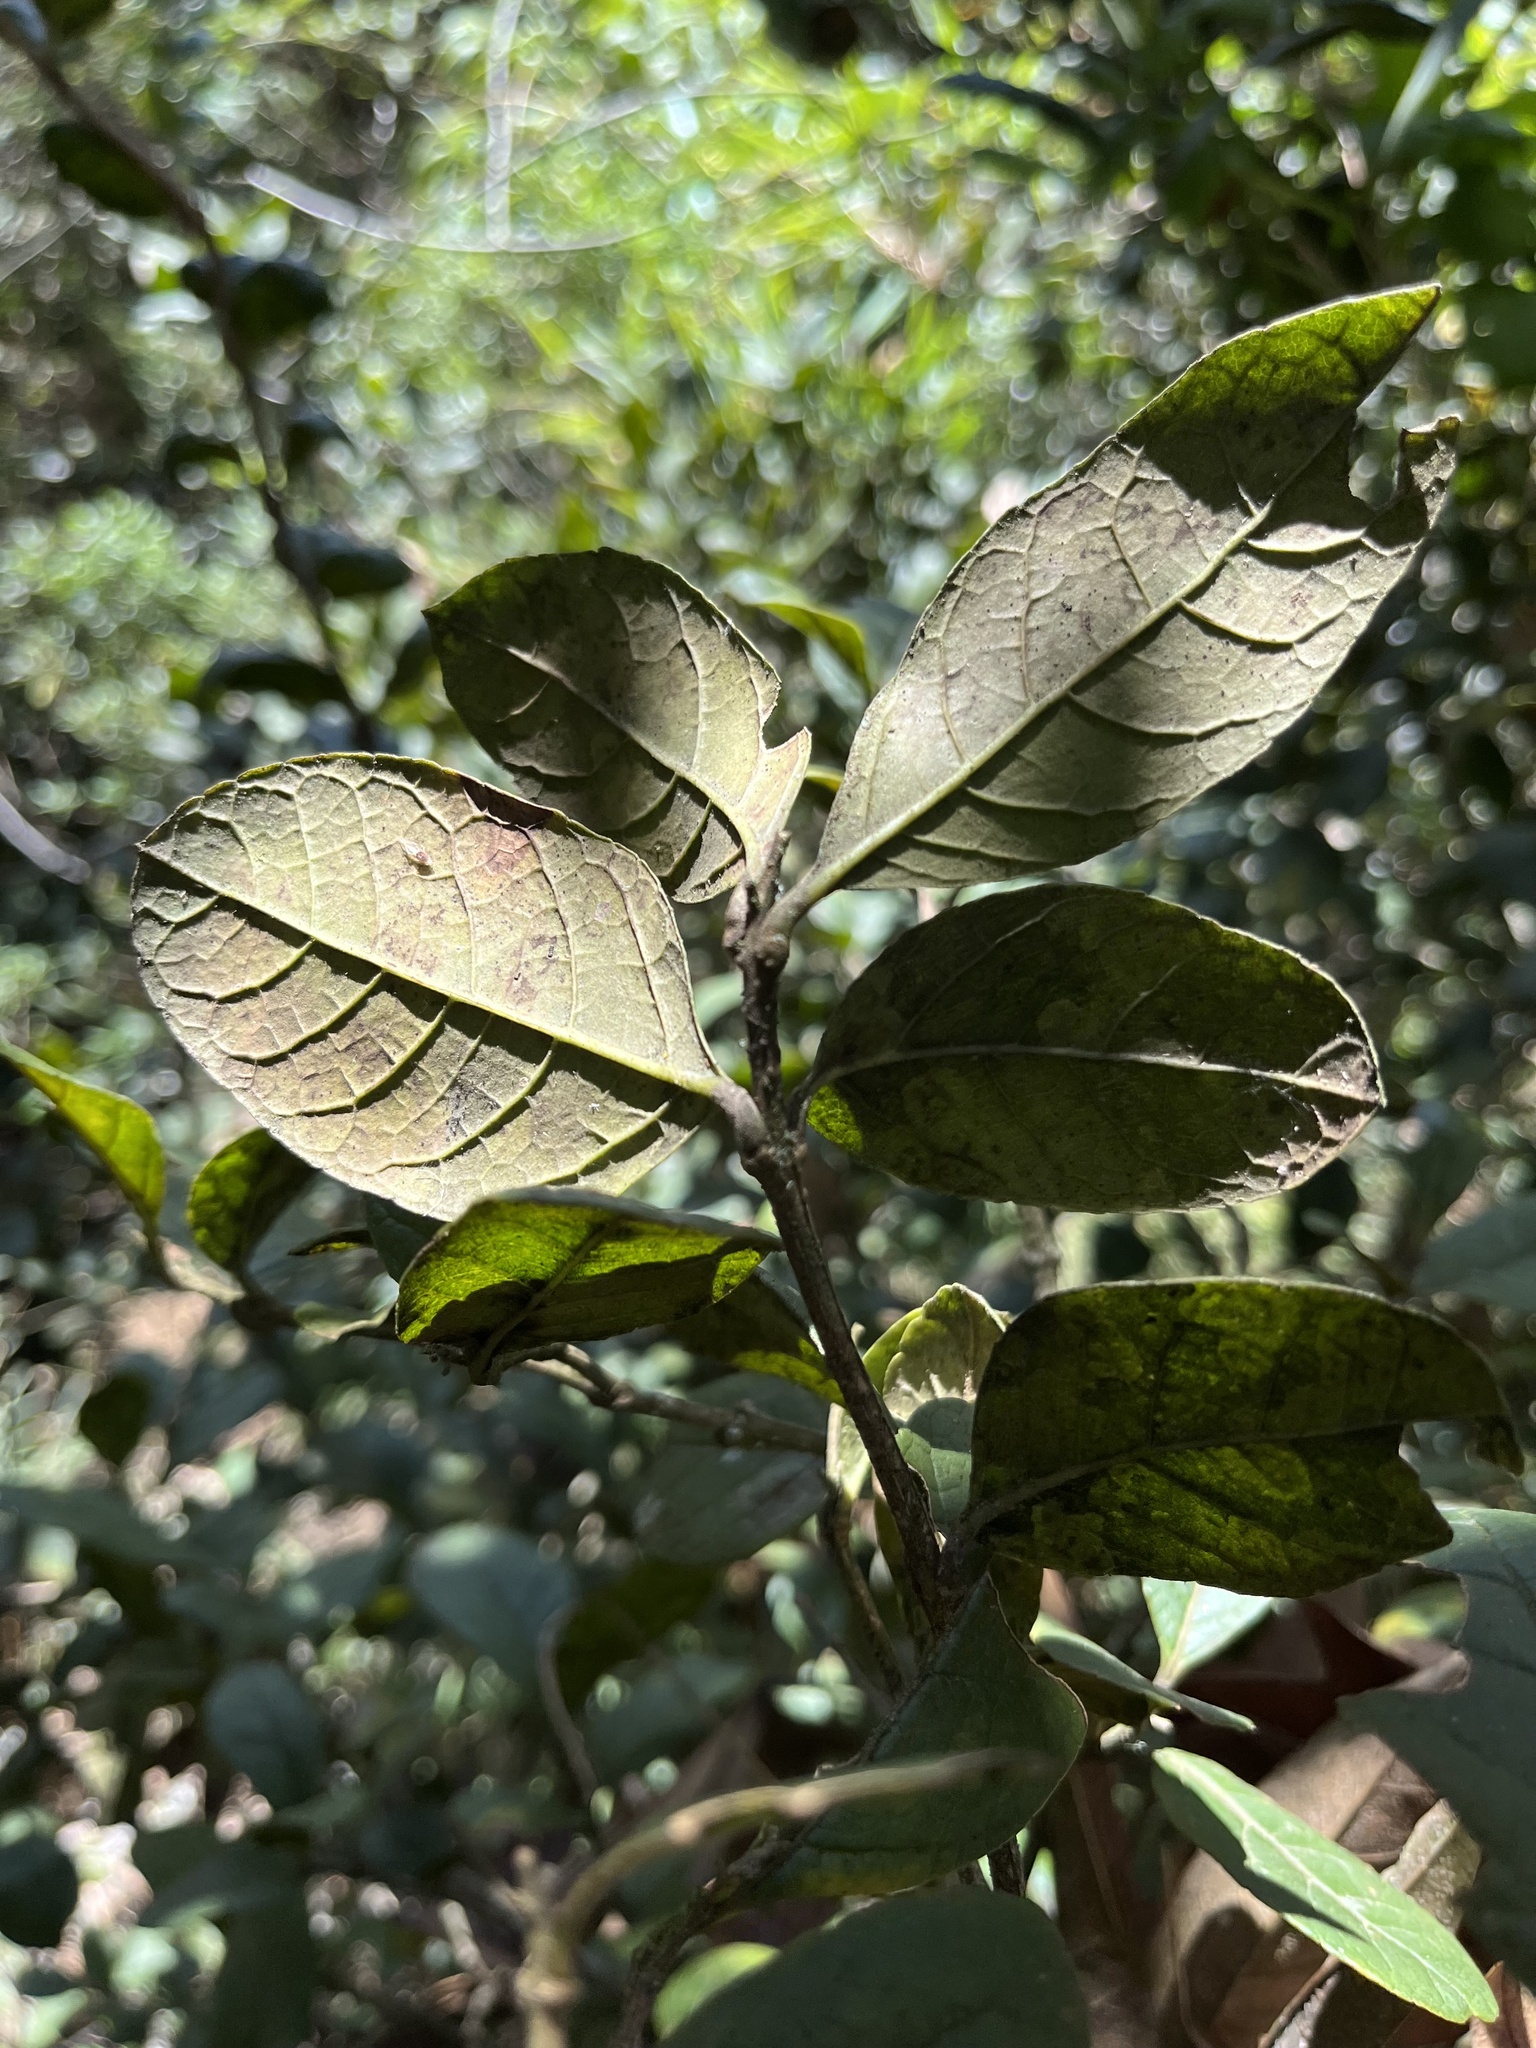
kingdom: Plantae
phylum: Tracheophyta
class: Magnoliopsida
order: Lamiales
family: Verbenaceae
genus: Citharexylum
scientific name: Citharexylum reticulatum
